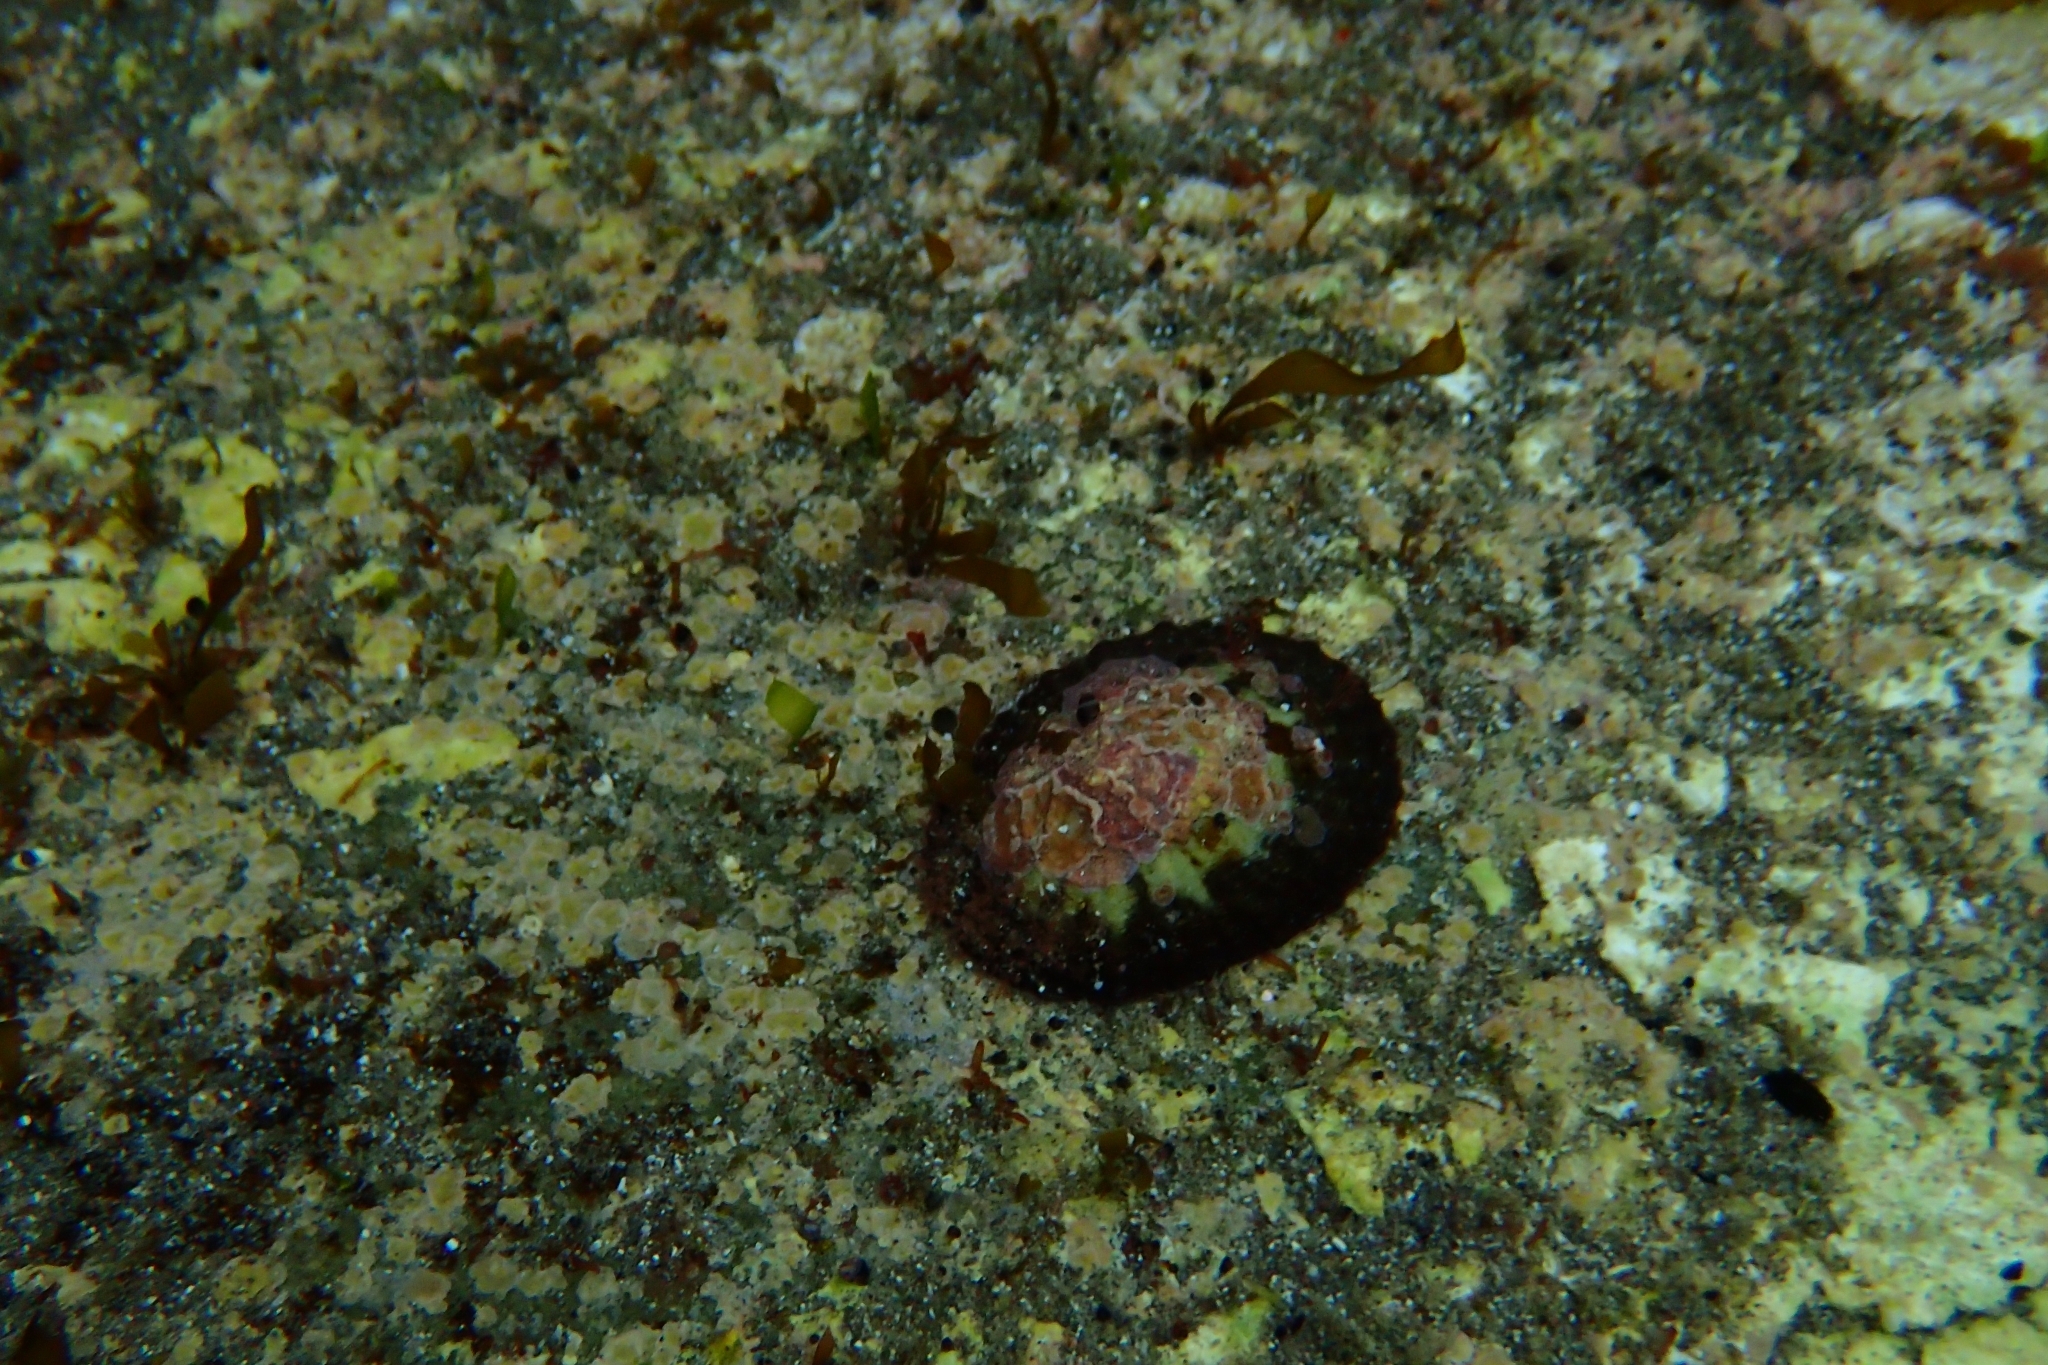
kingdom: Animalia
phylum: Mollusca
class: Gastropoda
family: Nacellidae
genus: Cellana
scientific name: Cellana stellifera
